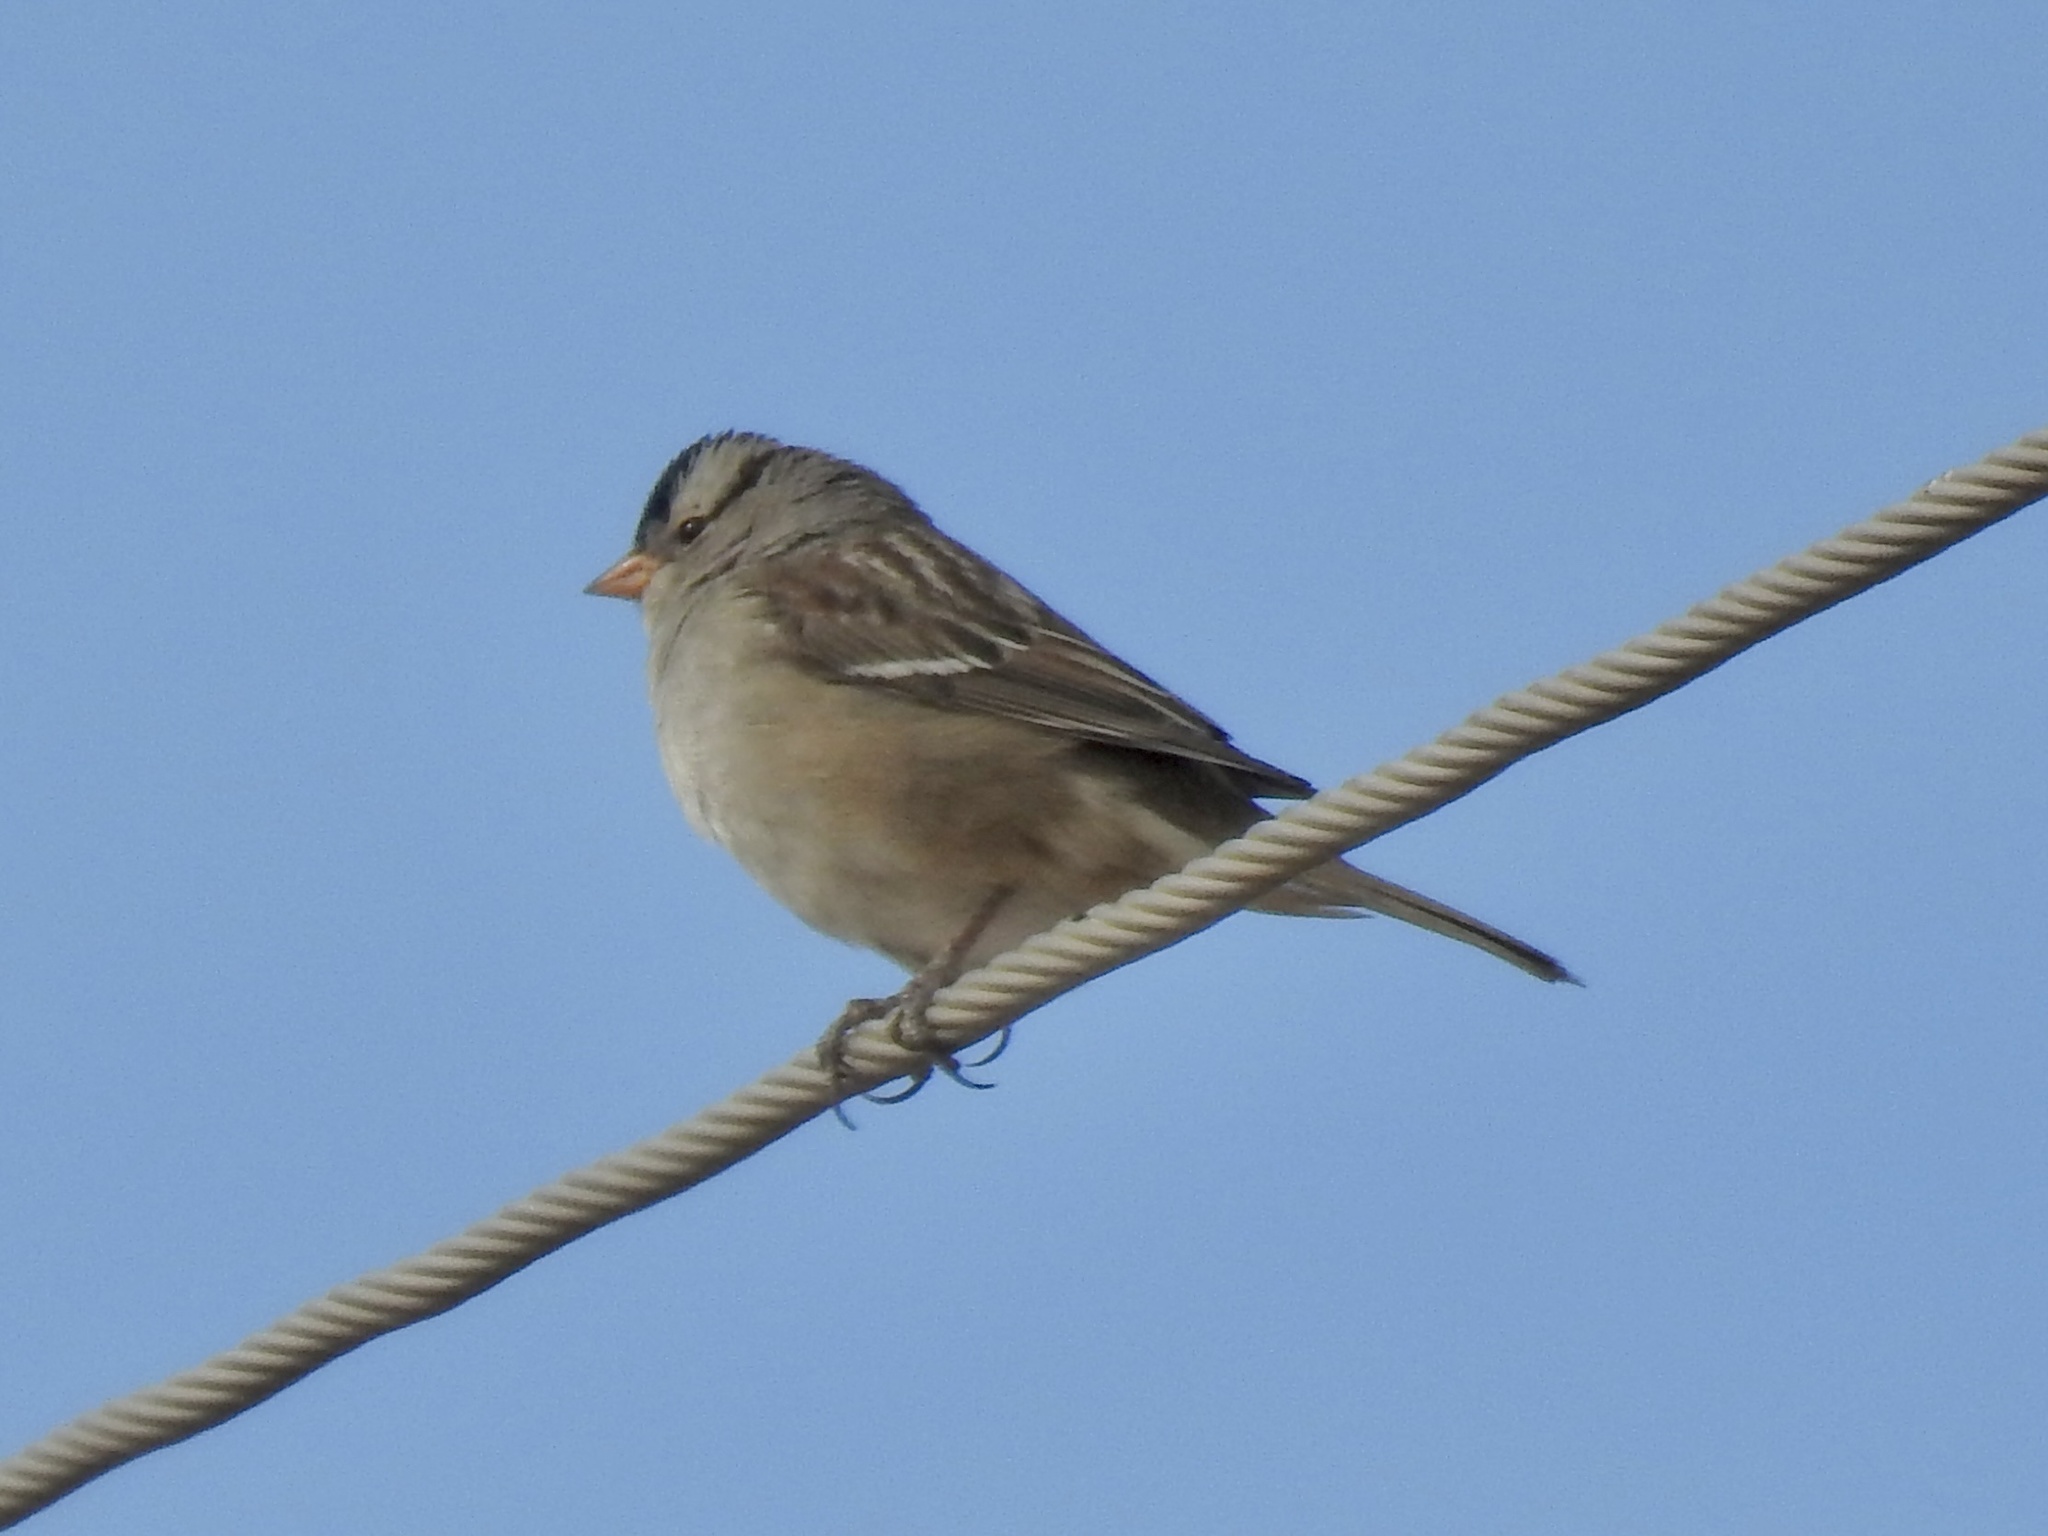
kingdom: Animalia
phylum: Chordata
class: Aves
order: Passeriformes
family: Passerellidae
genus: Zonotrichia
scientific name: Zonotrichia leucophrys
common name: White-crowned sparrow
